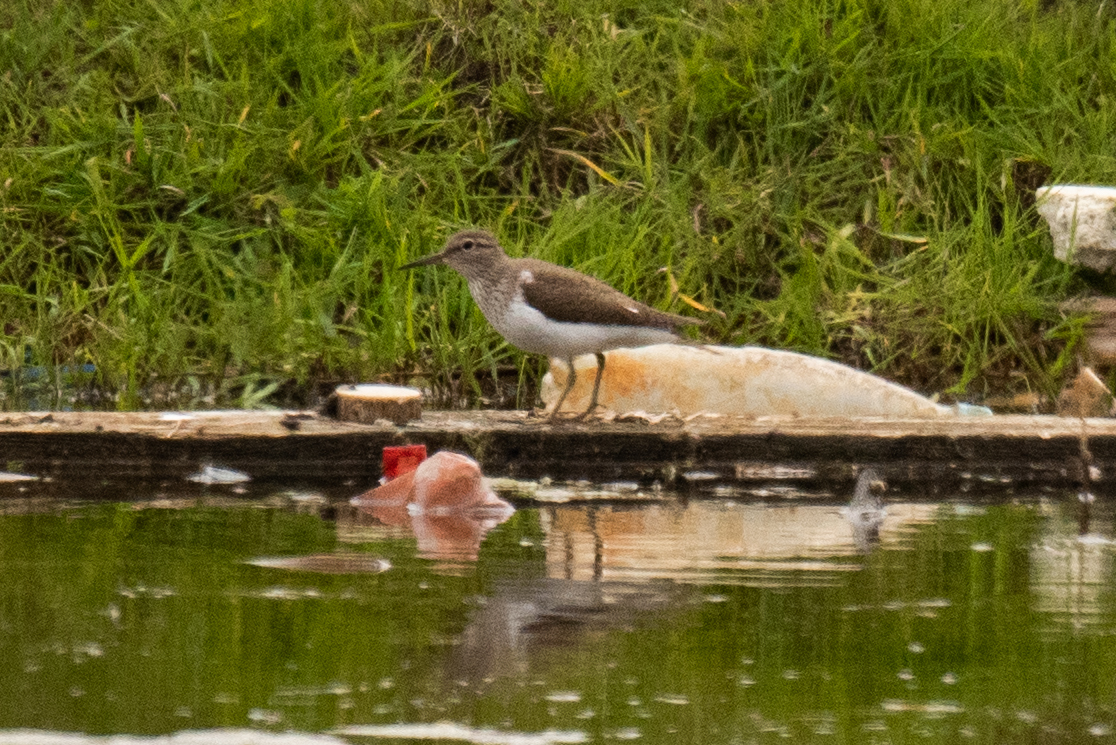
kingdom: Animalia
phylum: Chordata
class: Aves
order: Charadriiformes
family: Scolopacidae
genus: Actitis
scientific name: Actitis hypoleucos
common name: Common sandpiper
